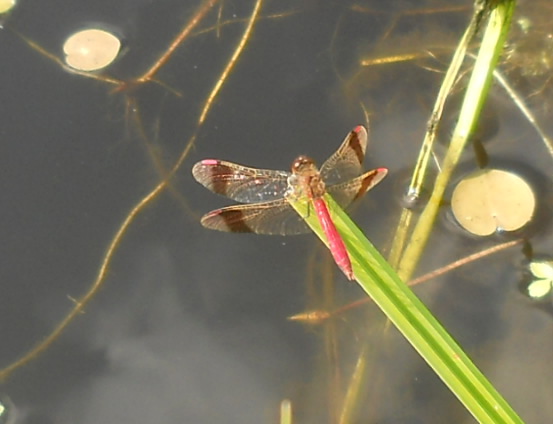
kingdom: Animalia
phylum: Arthropoda
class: Insecta
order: Odonata
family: Libellulidae
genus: Sympetrum
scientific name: Sympetrum pedemontanum
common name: Banded darter
